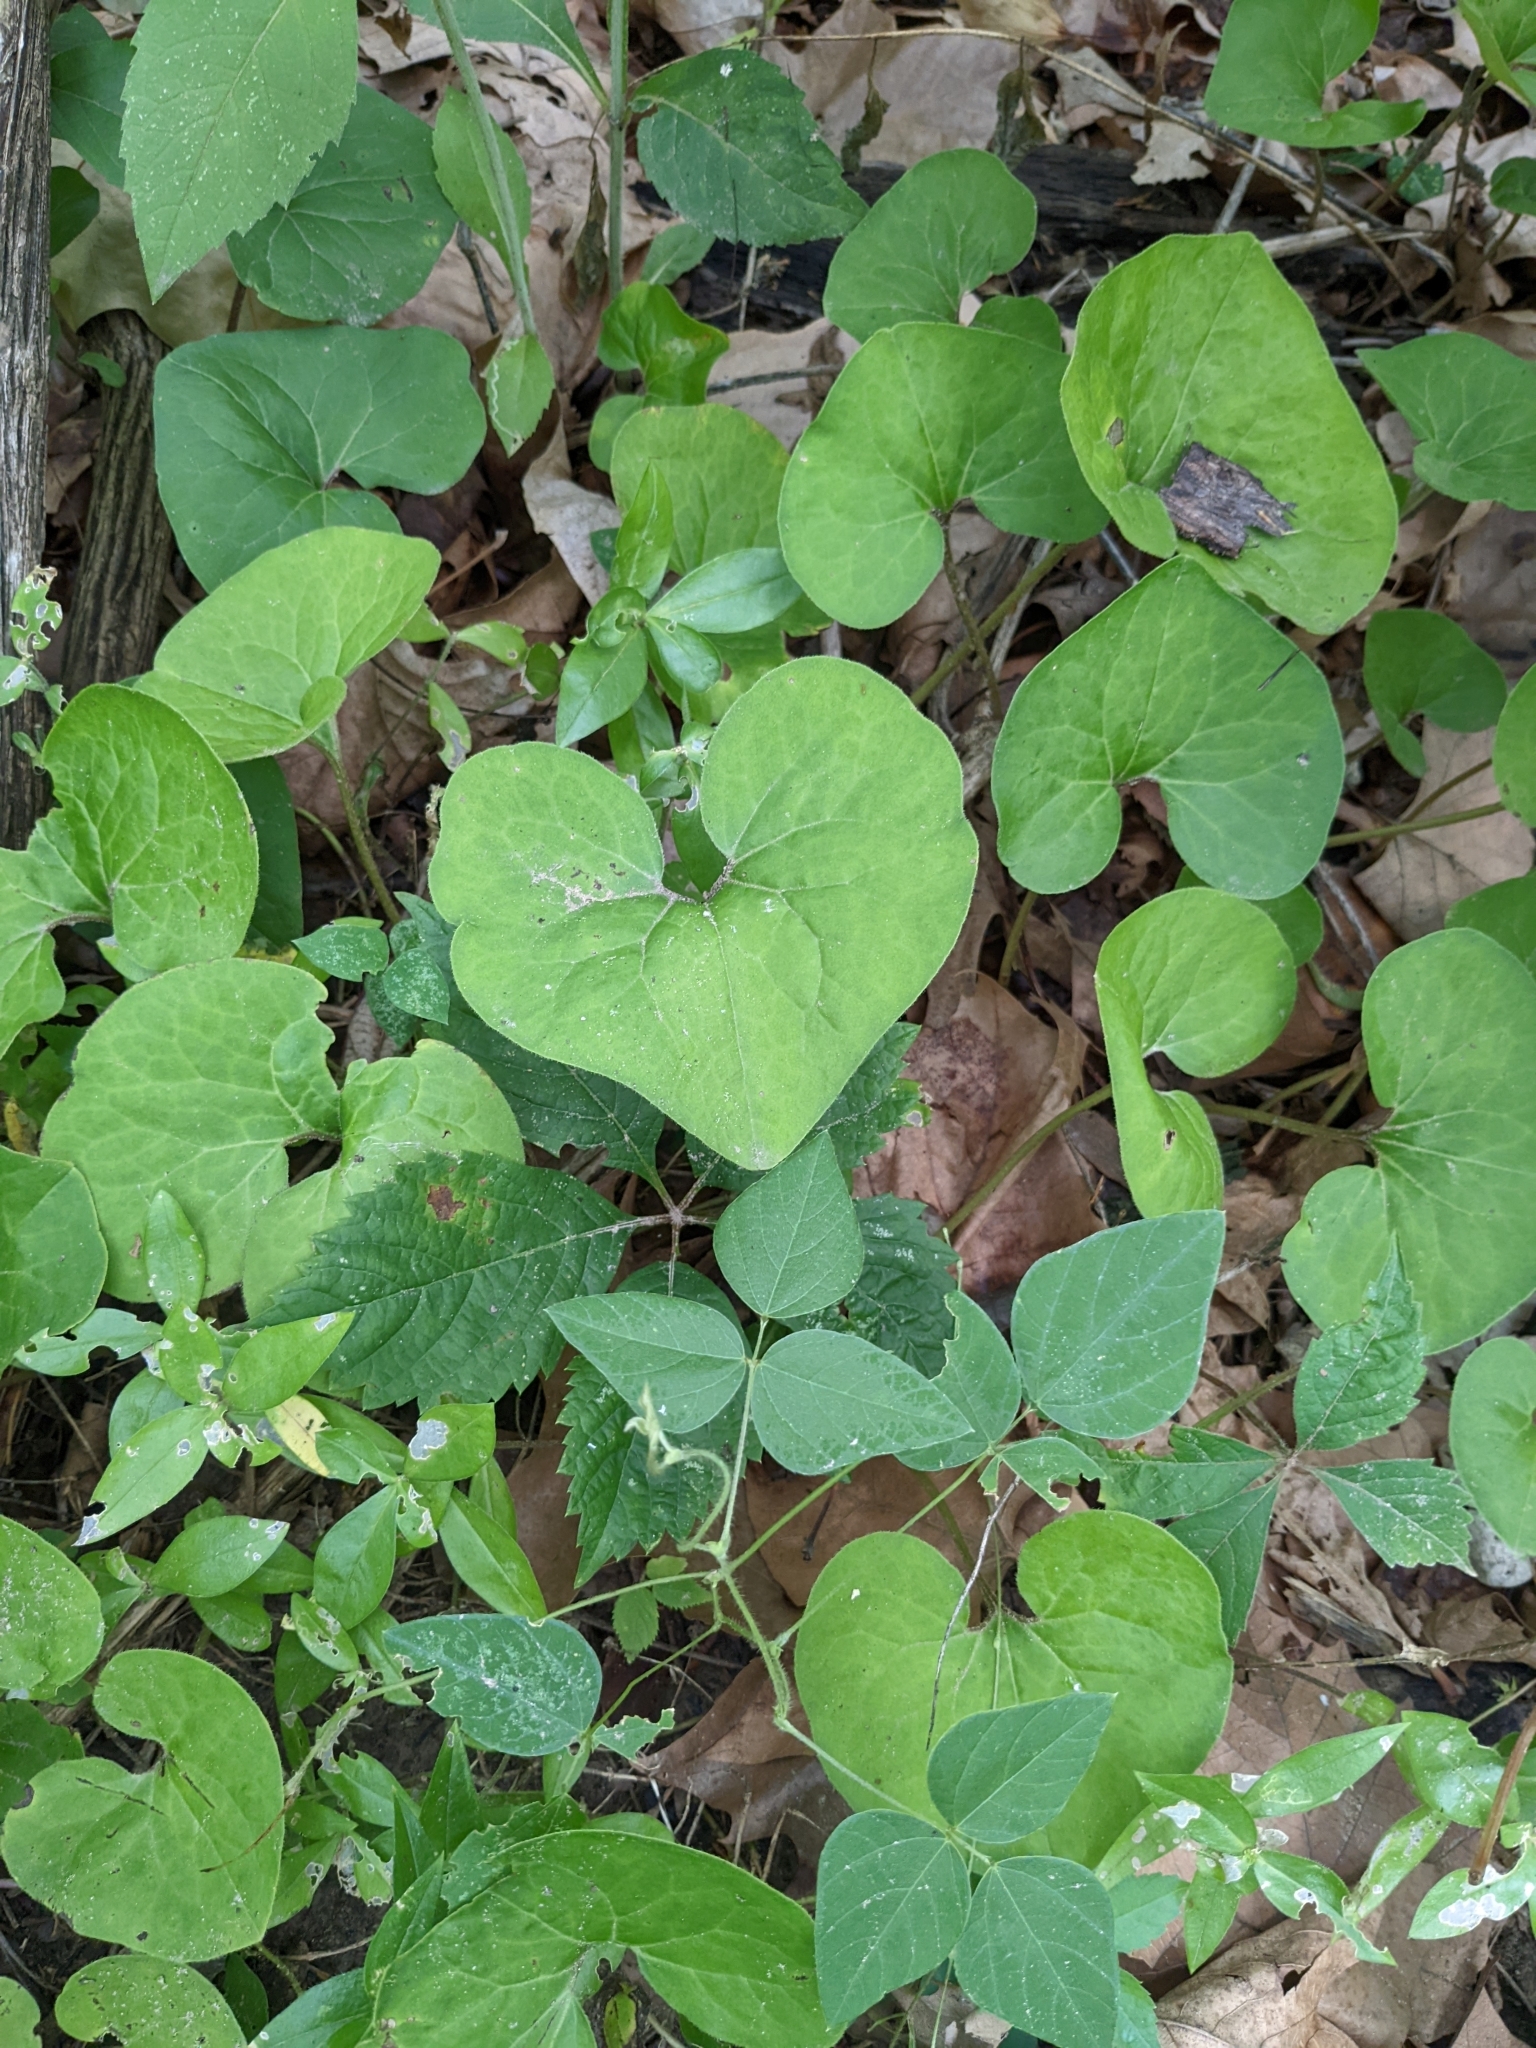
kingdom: Plantae
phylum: Tracheophyta
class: Magnoliopsida
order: Piperales
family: Aristolochiaceae
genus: Asarum
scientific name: Asarum canadense
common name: Wild ginger
